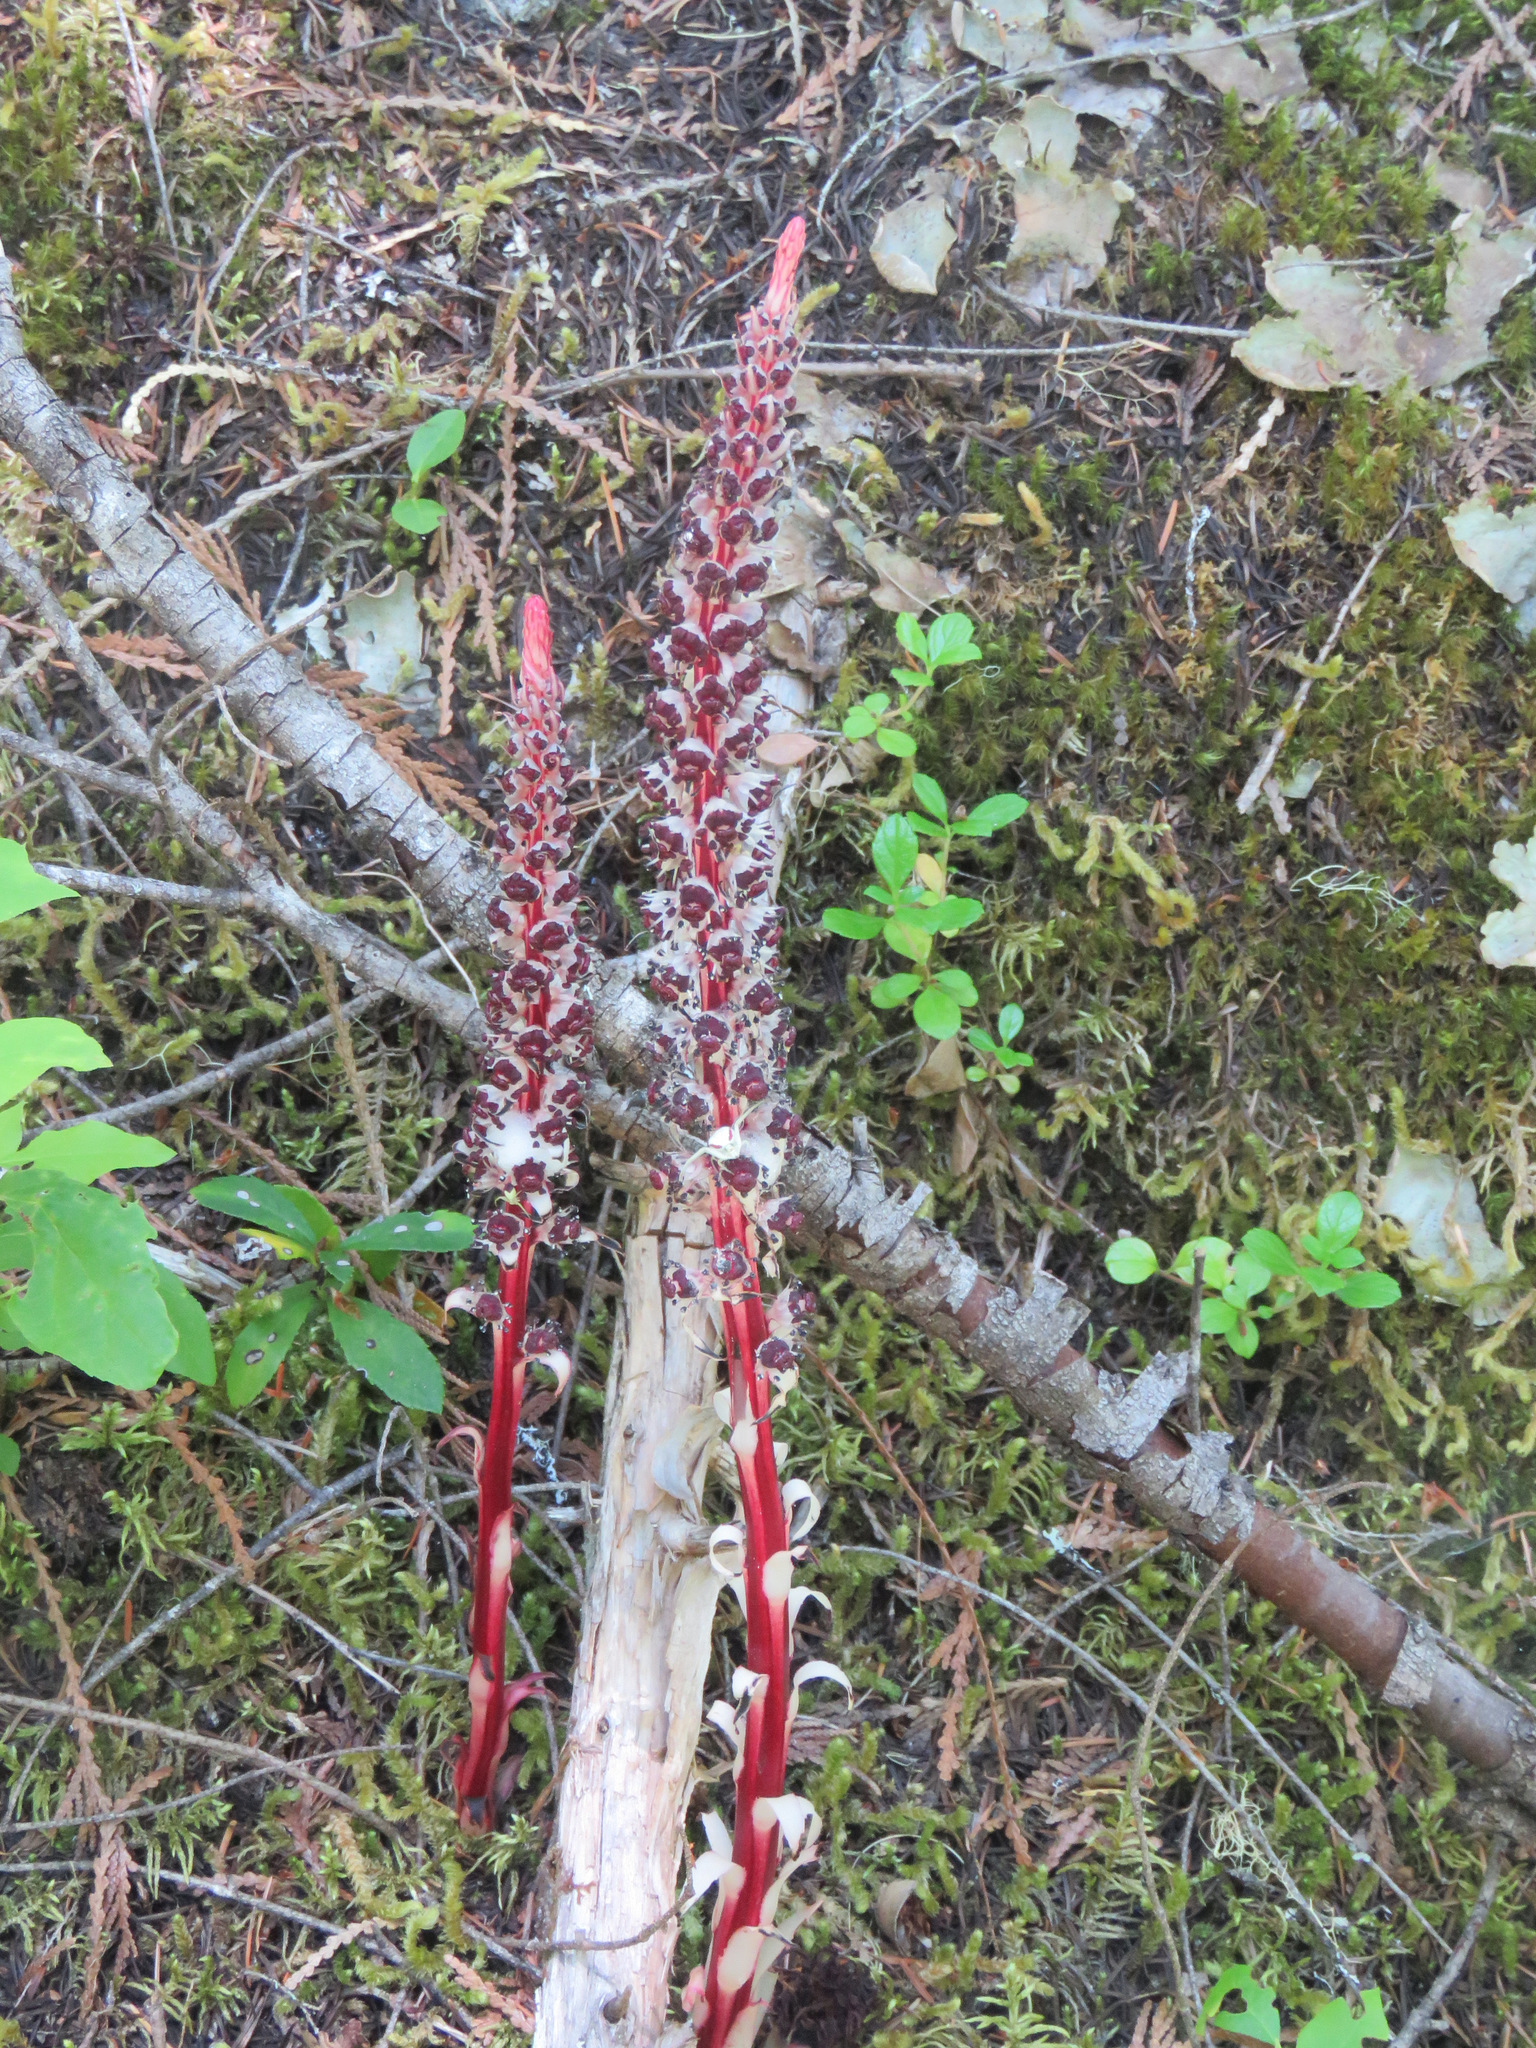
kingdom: Plantae
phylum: Tracheophyta
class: Magnoliopsida
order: Ericales
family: Ericaceae
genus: Allotropa
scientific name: Allotropa virgata
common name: Candy-striped allotropa
